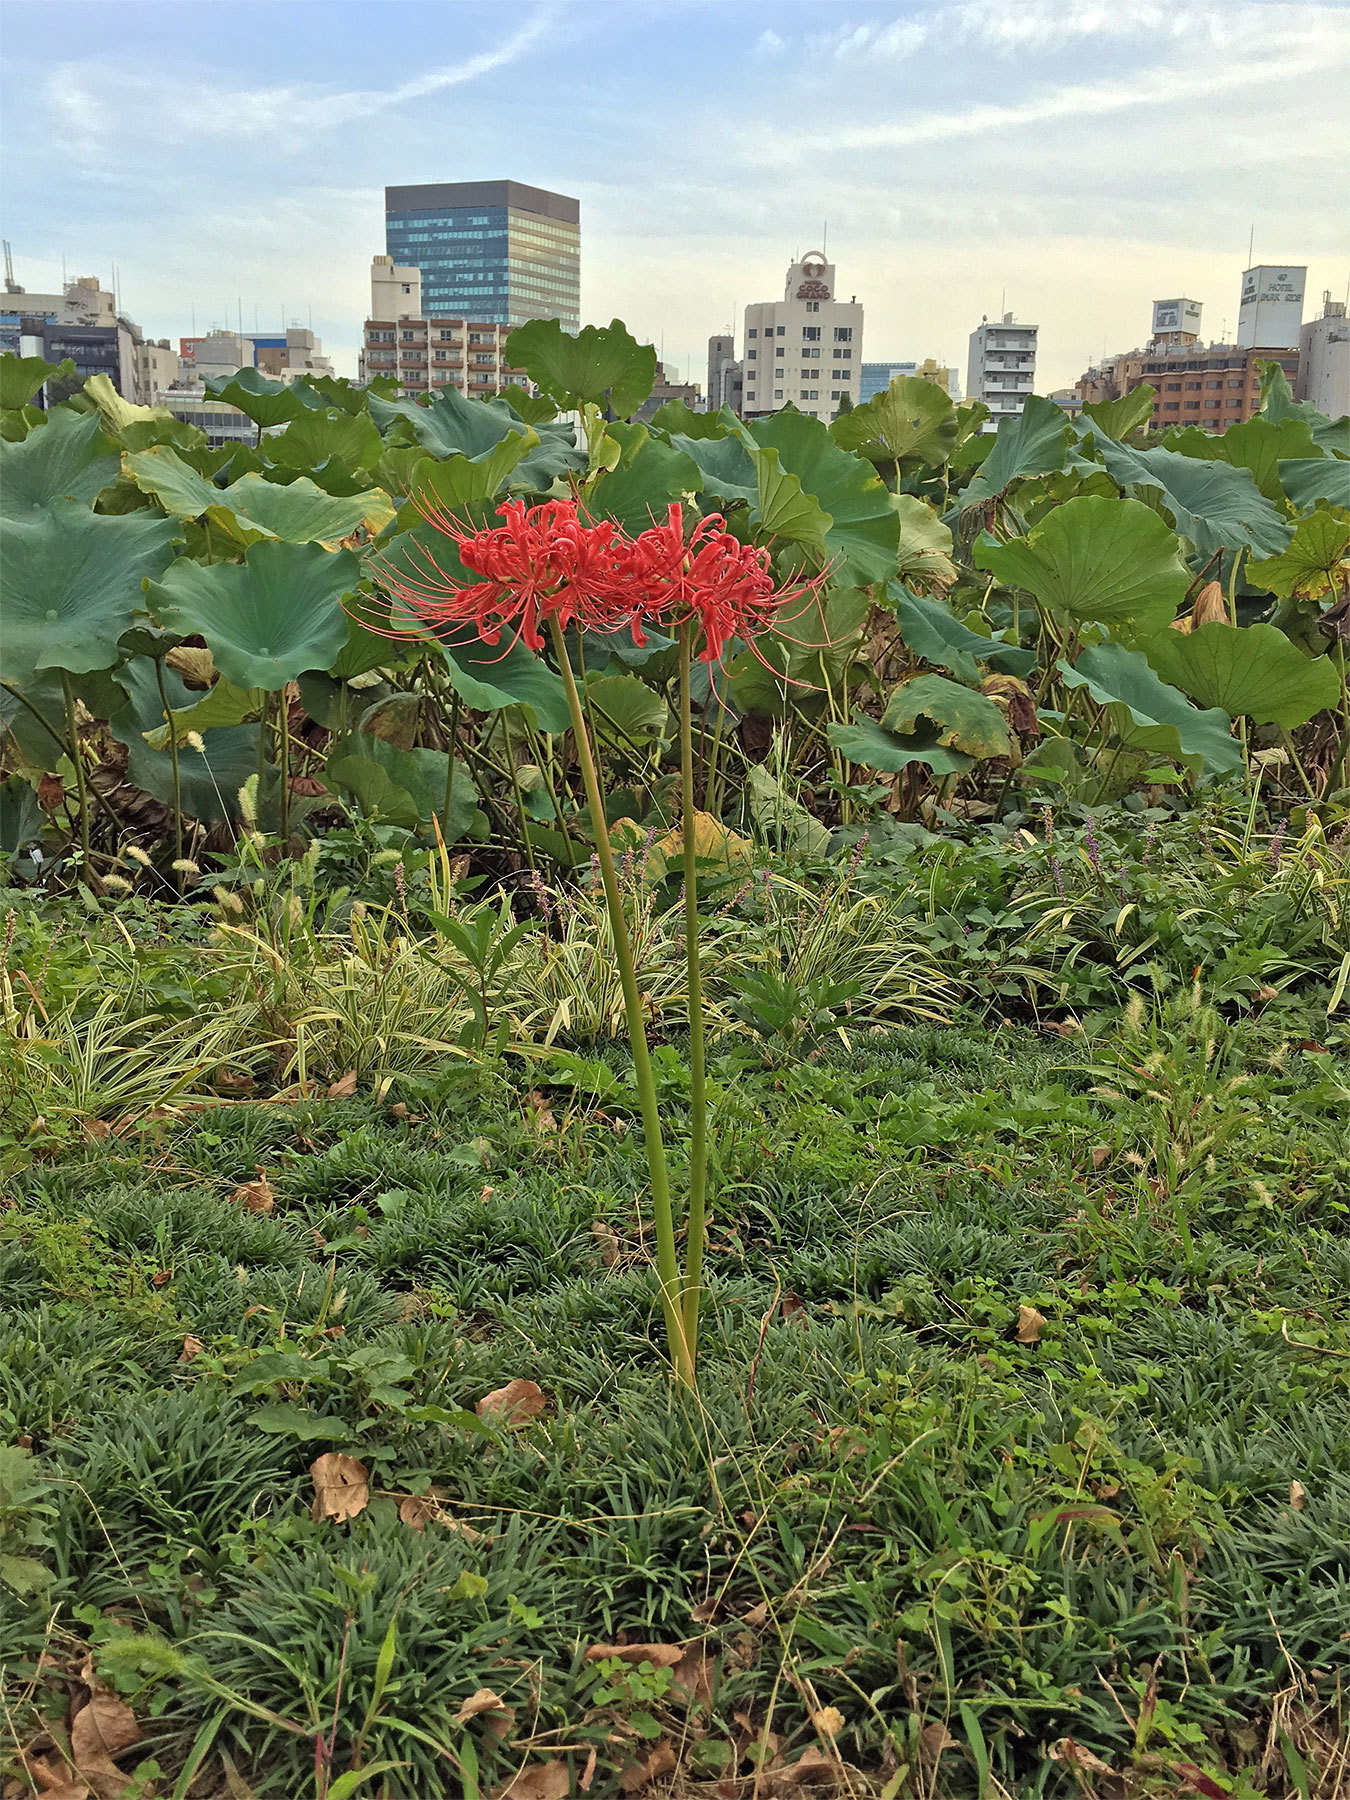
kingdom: Plantae
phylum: Tracheophyta
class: Liliopsida
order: Asparagales
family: Amaryllidaceae
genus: Lycoris
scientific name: Lycoris radiata
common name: Red spider lily
